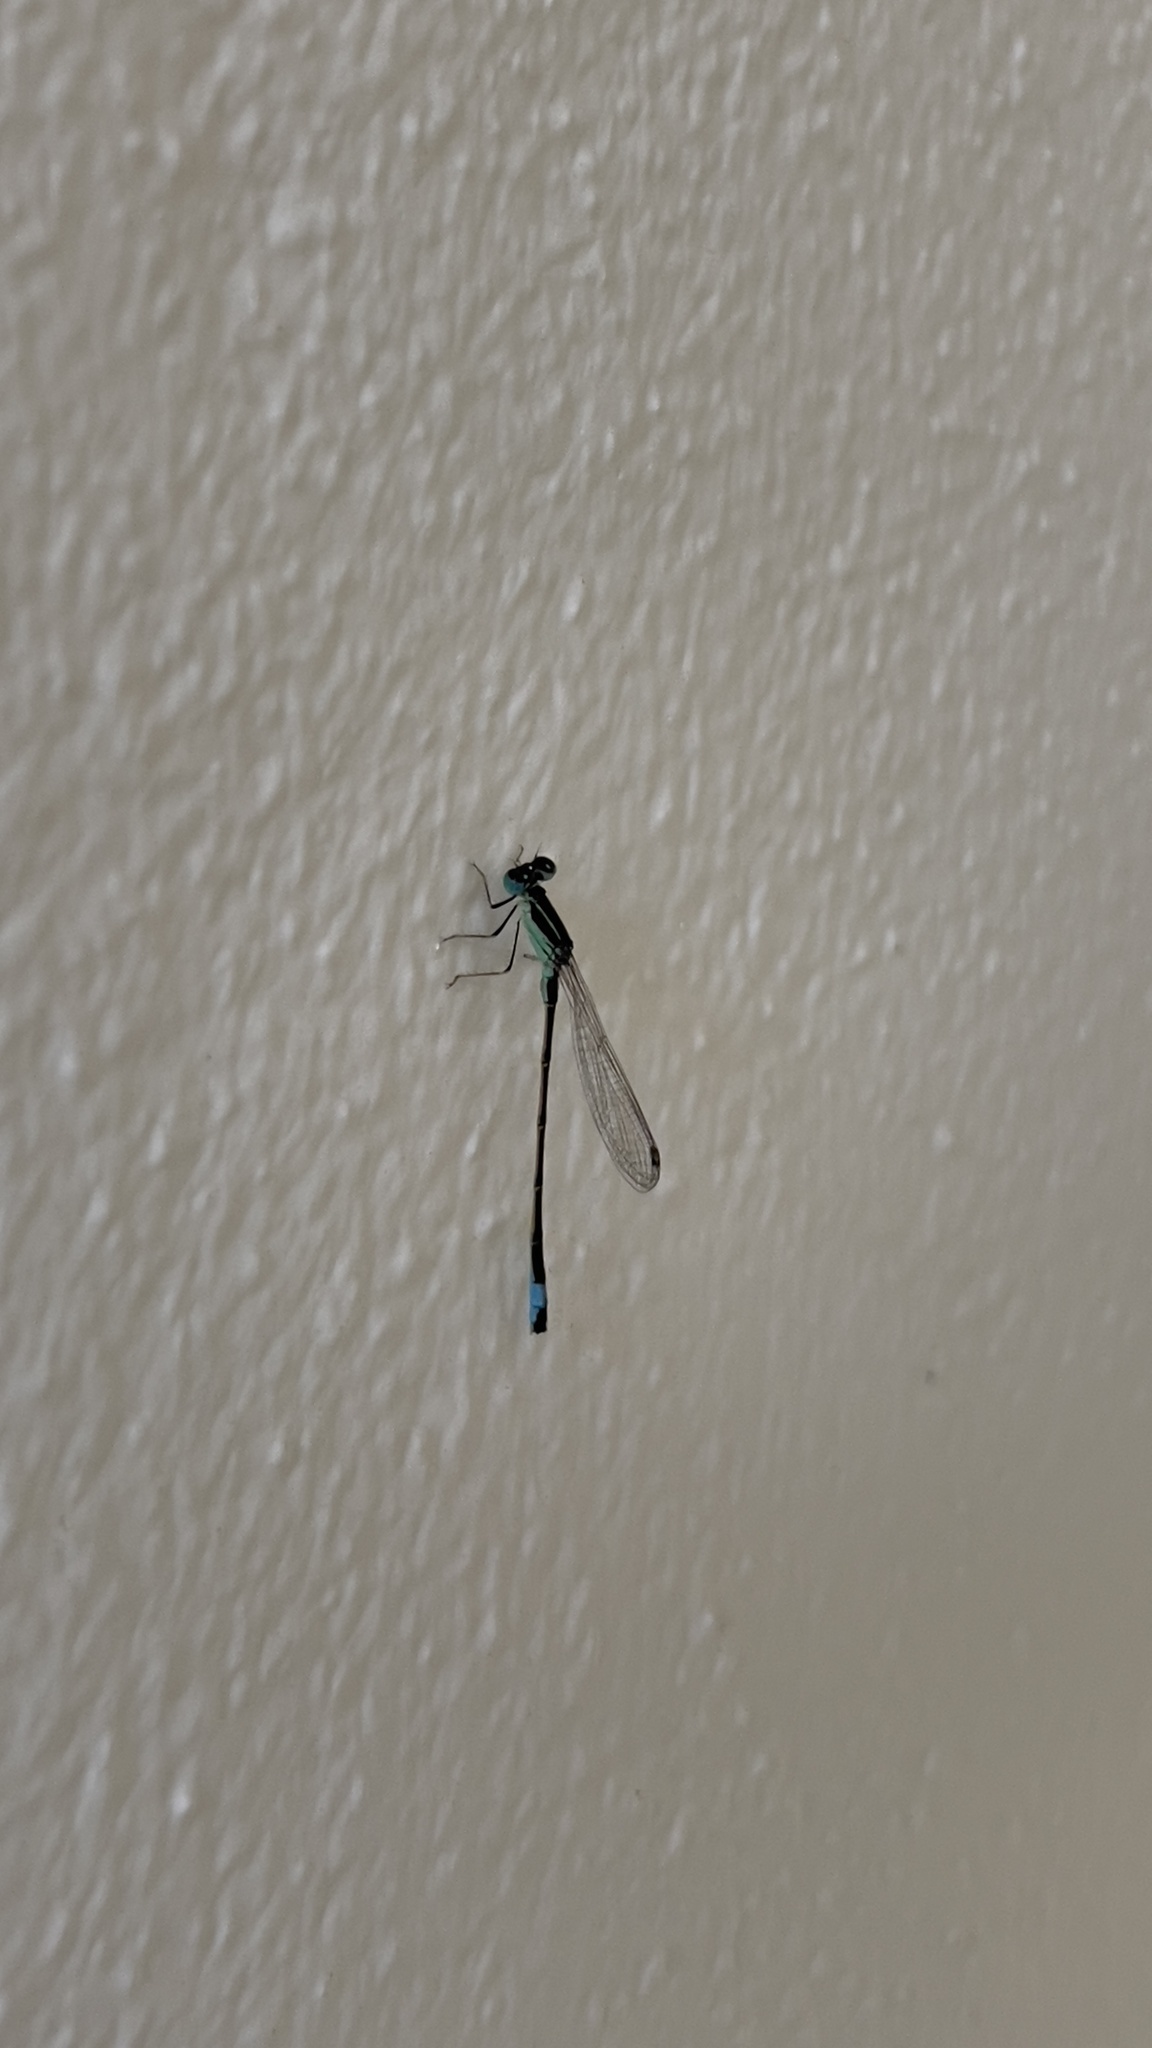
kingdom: Animalia
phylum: Arthropoda
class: Insecta
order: Odonata
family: Coenagrionidae
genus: Ischnura
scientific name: Ischnura graellsii
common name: Iberian bluetail
